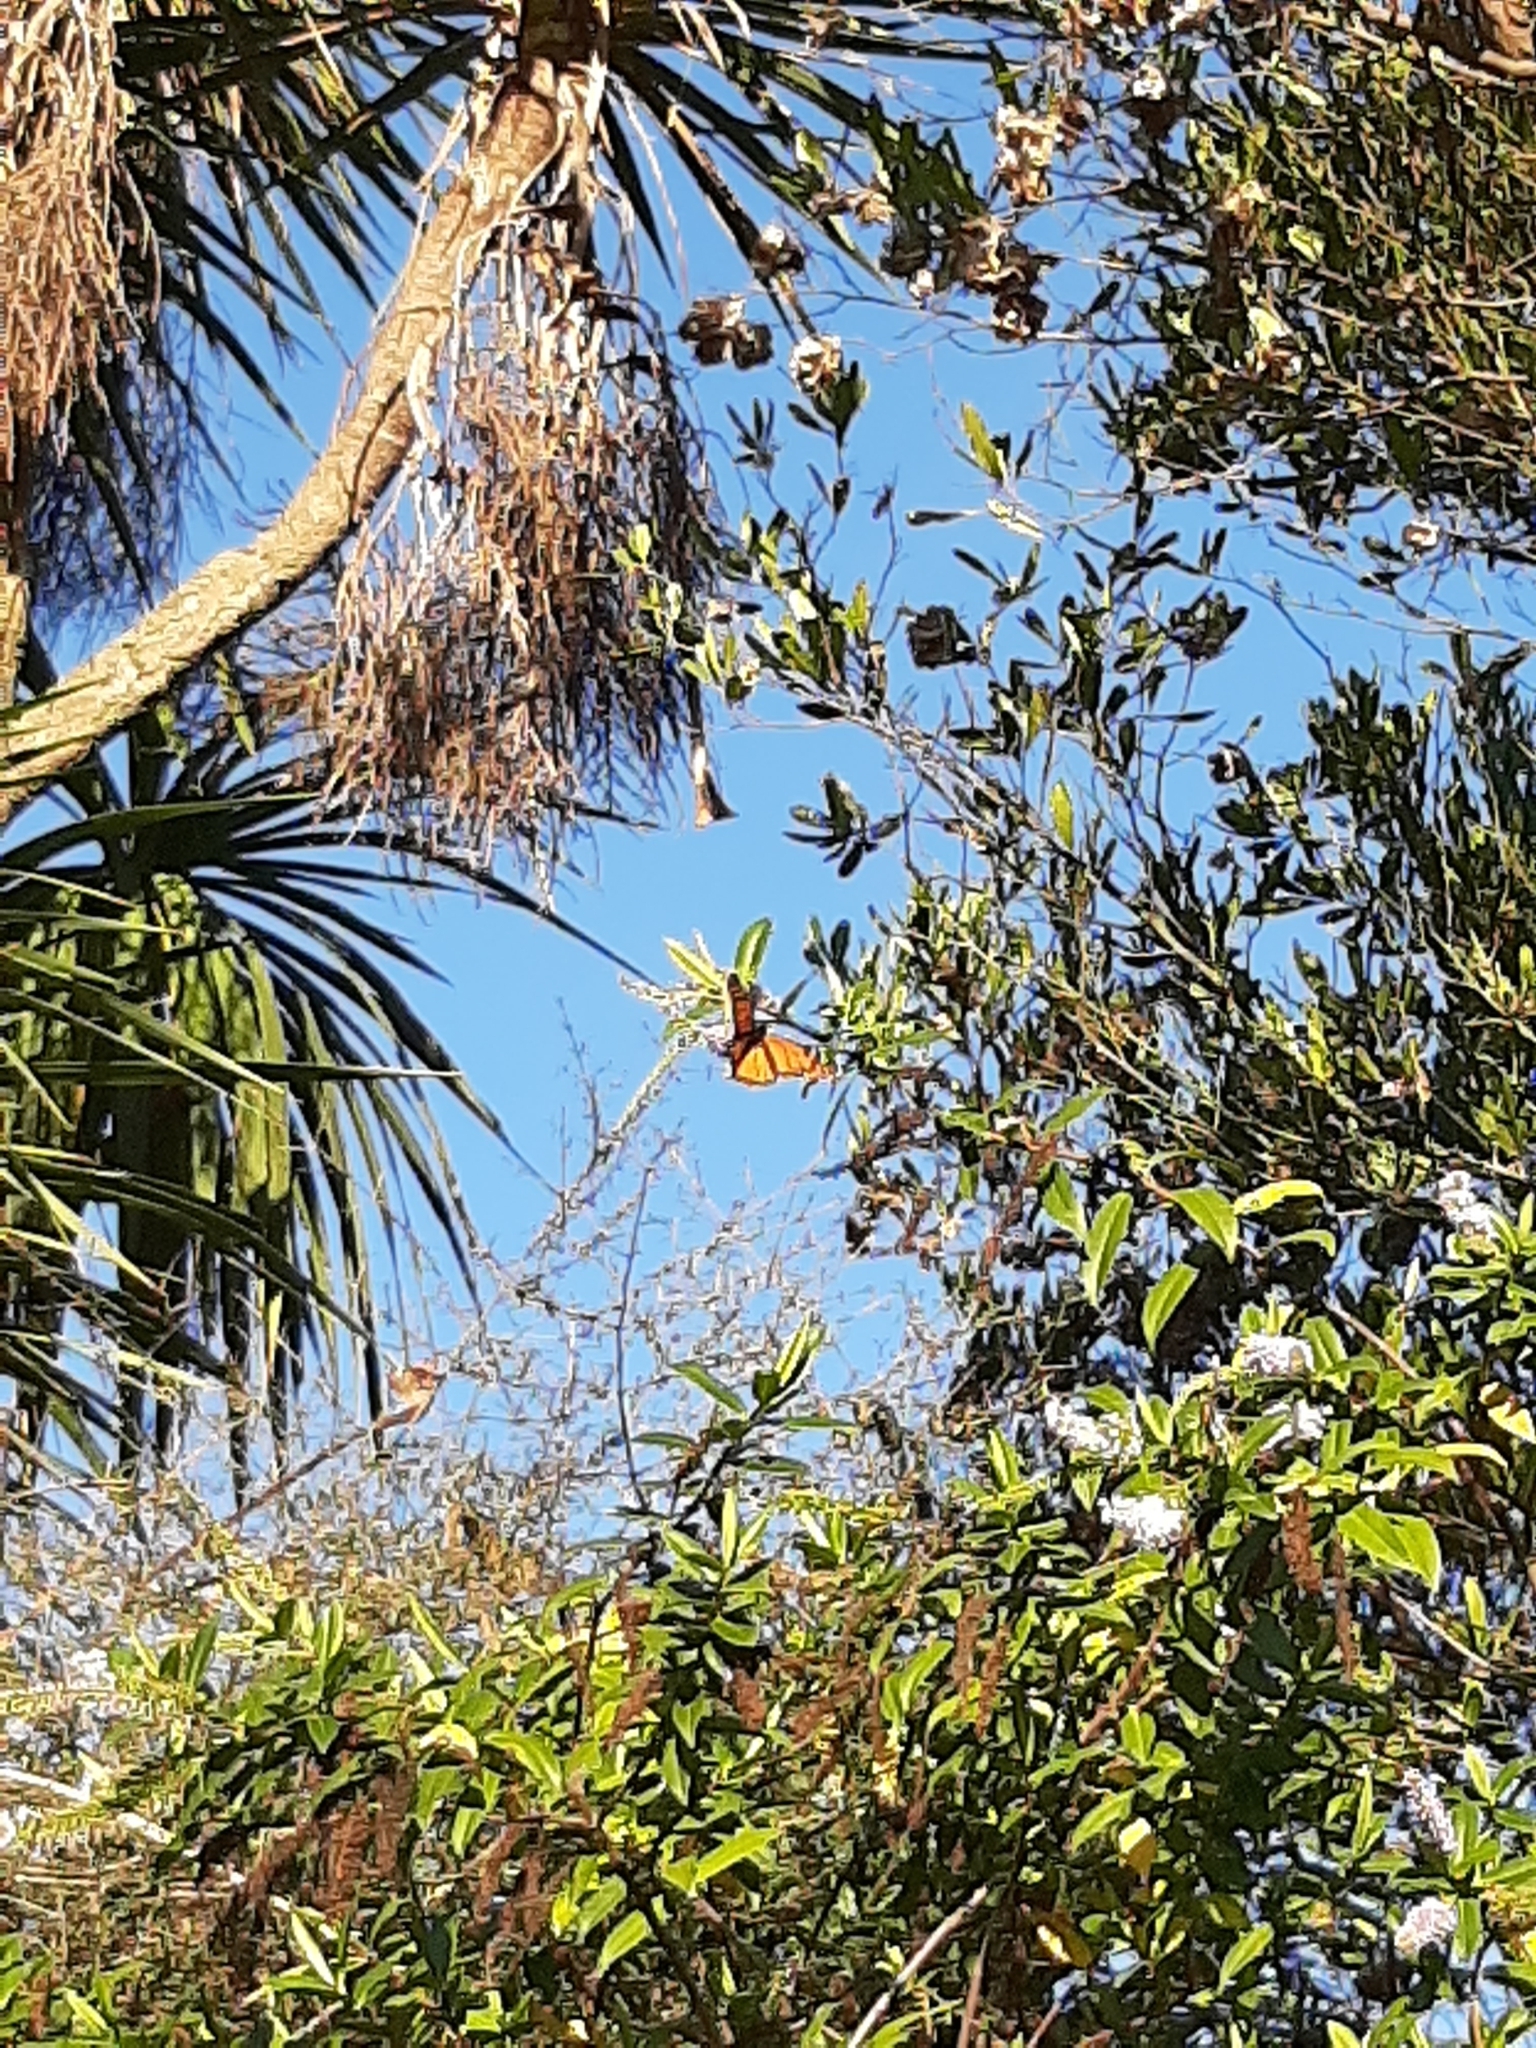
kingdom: Animalia
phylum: Arthropoda
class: Insecta
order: Lepidoptera
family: Nymphalidae
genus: Danaus
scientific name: Danaus plexippus
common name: Monarch
